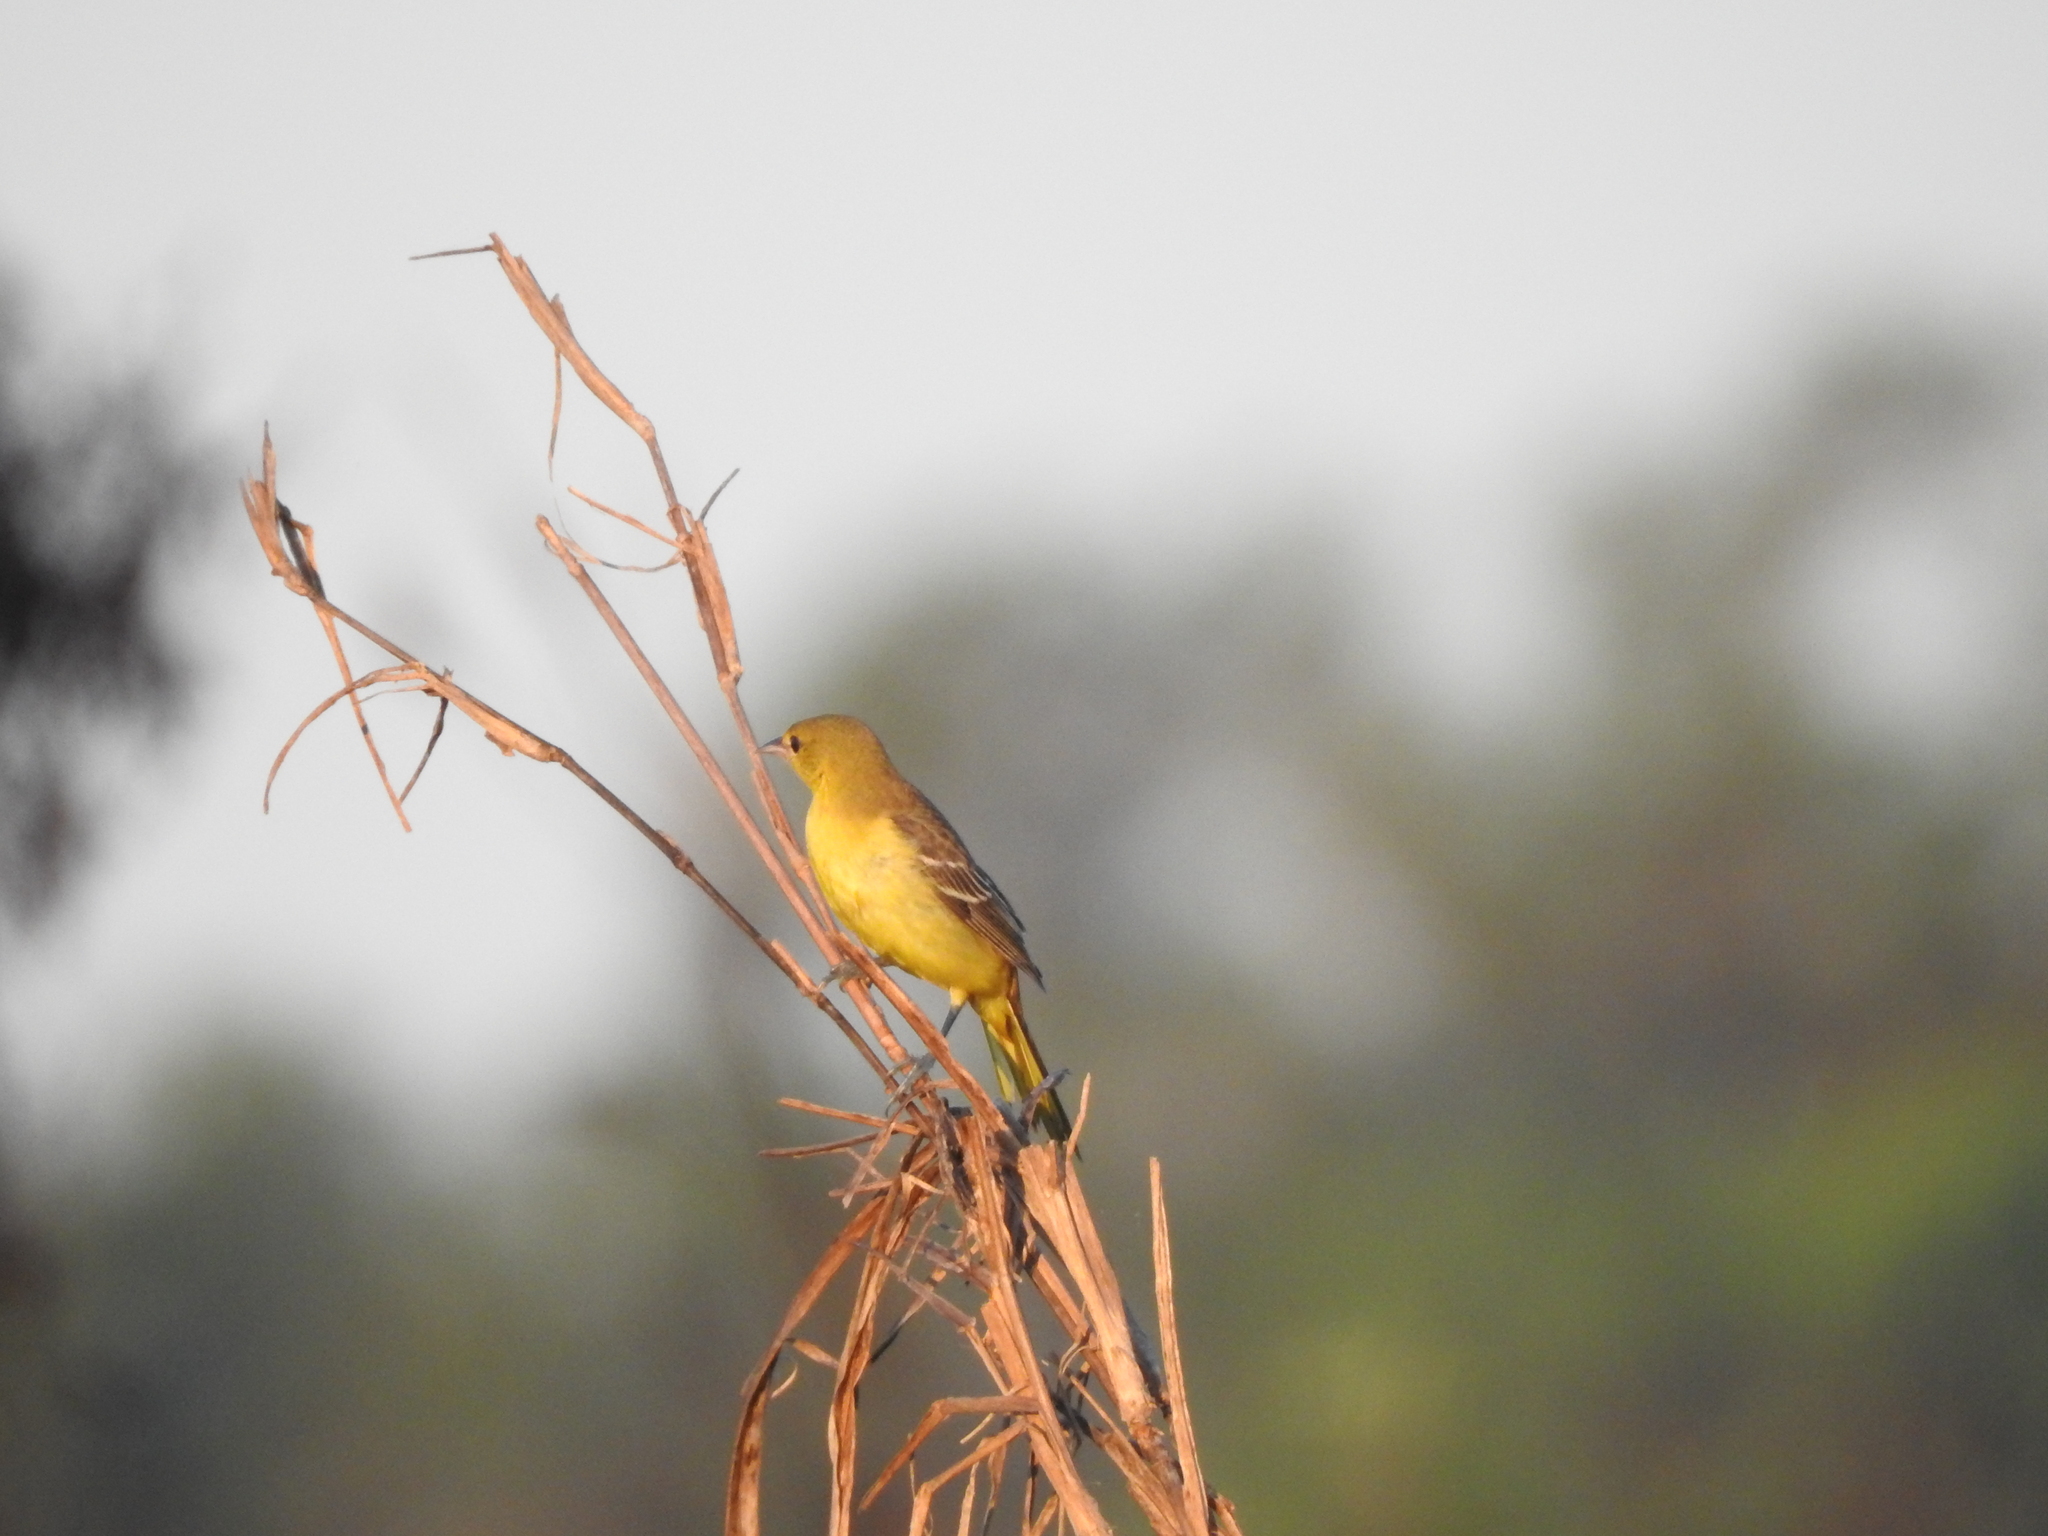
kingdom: Animalia
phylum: Chordata
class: Aves
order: Passeriformes
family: Icteridae
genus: Icterus
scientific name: Icterus spurius
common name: Orchard oriole
